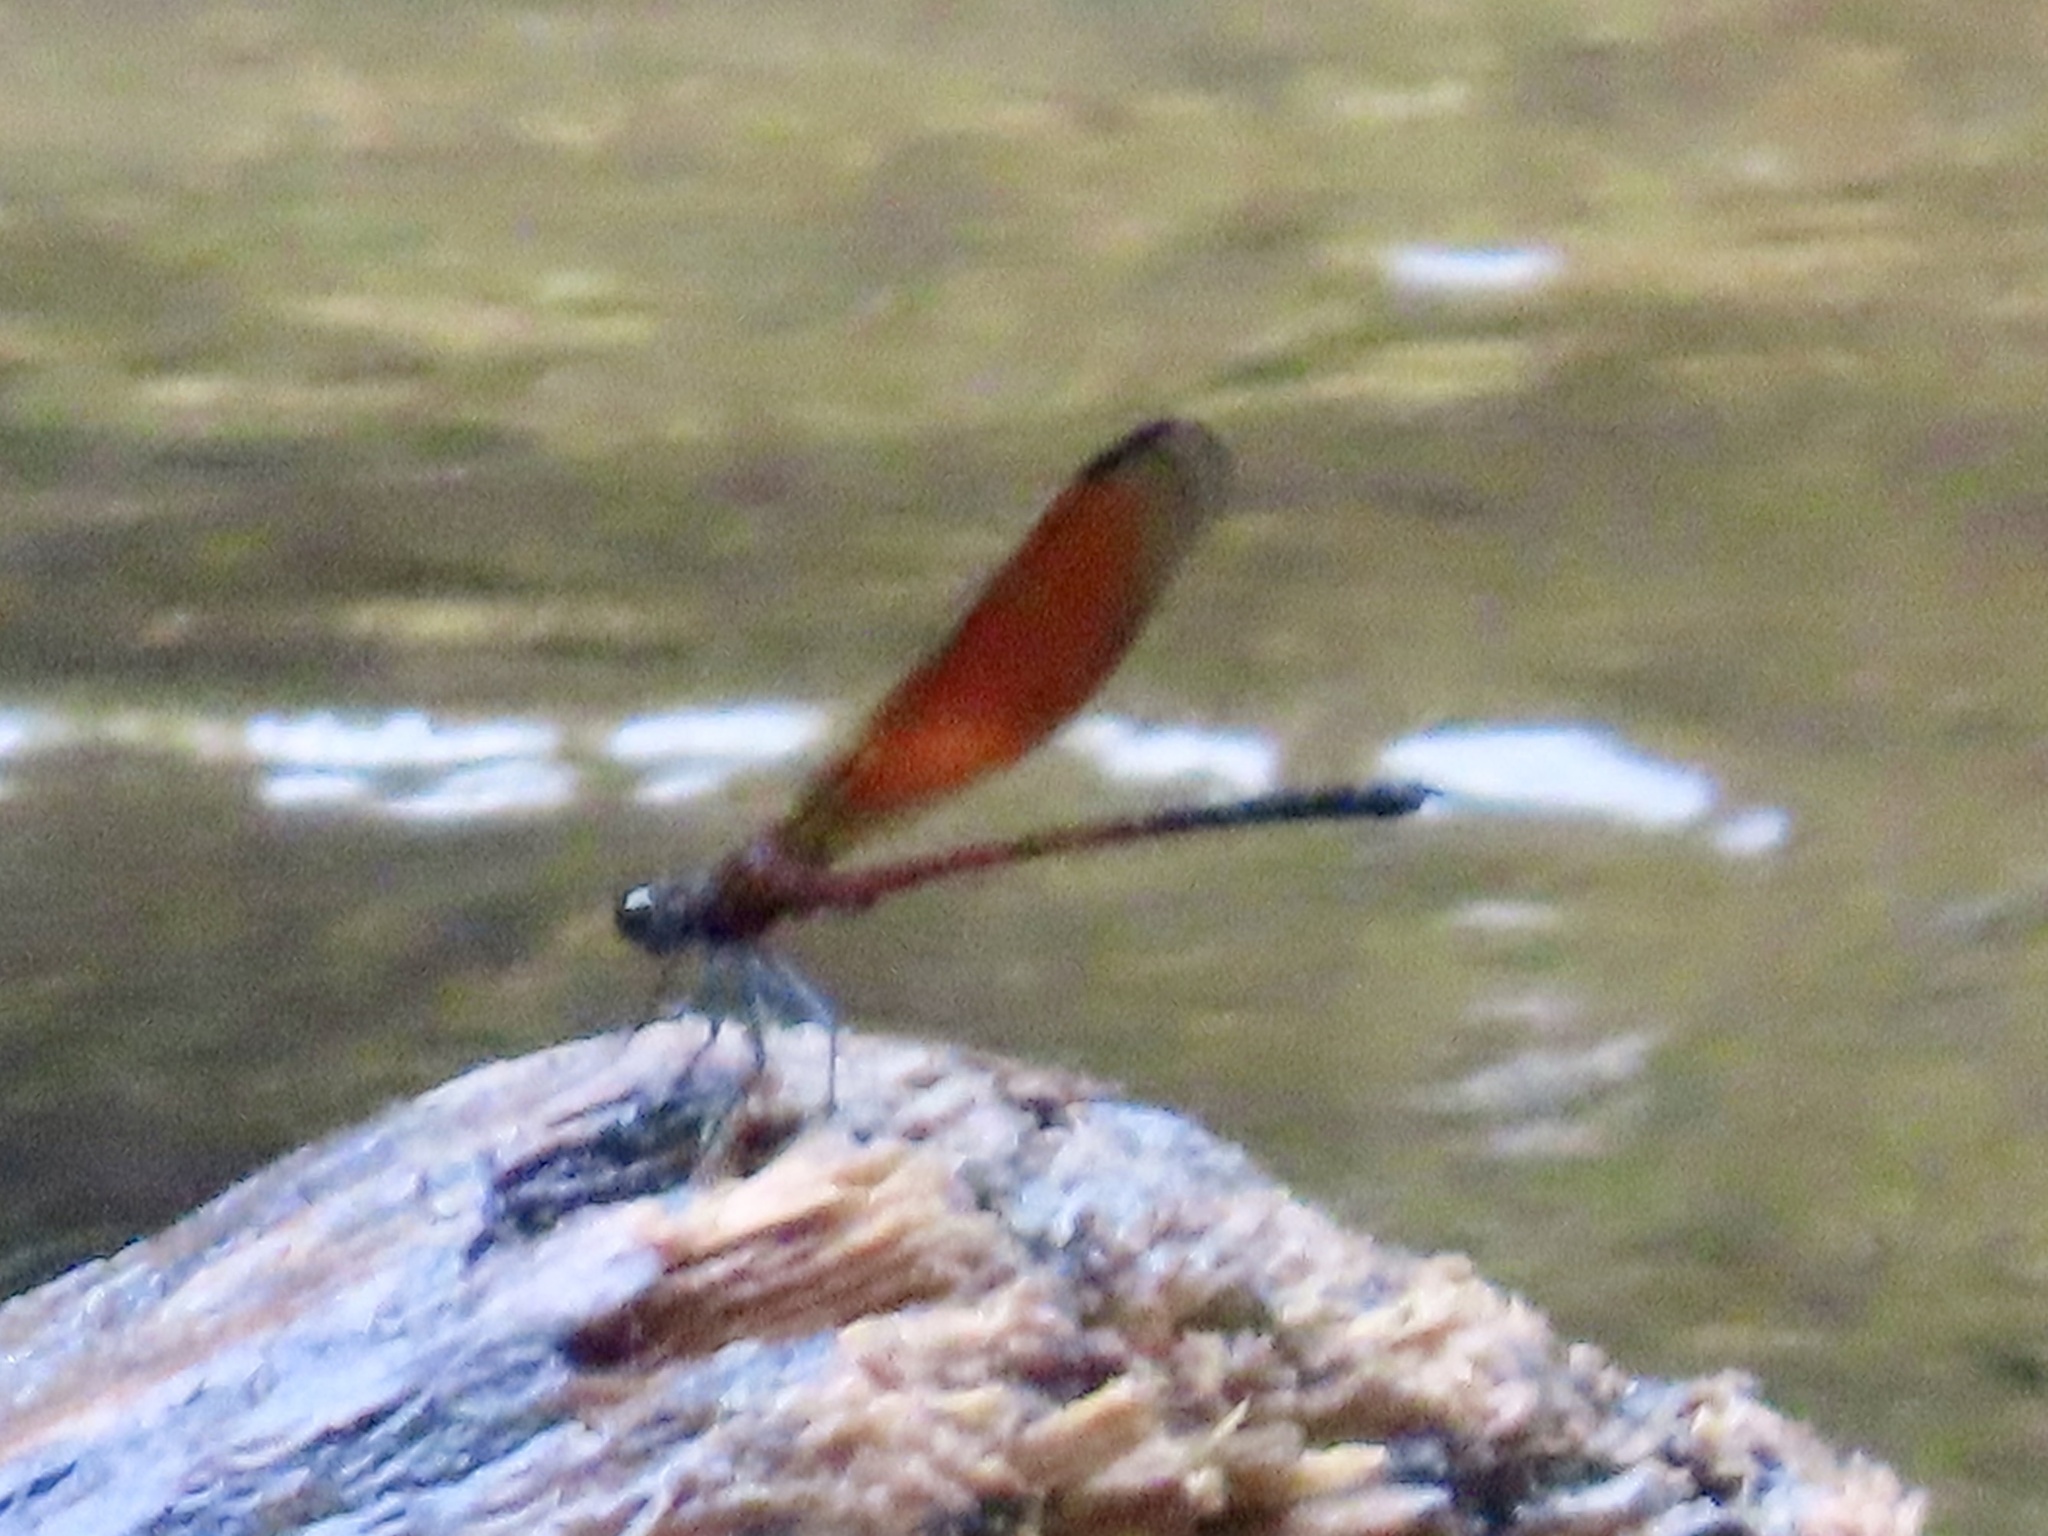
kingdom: Animalia
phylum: Arthropoda
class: Insecta
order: Odonata
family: Euphaeidae
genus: Euphaea
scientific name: Euphaea ochracea
